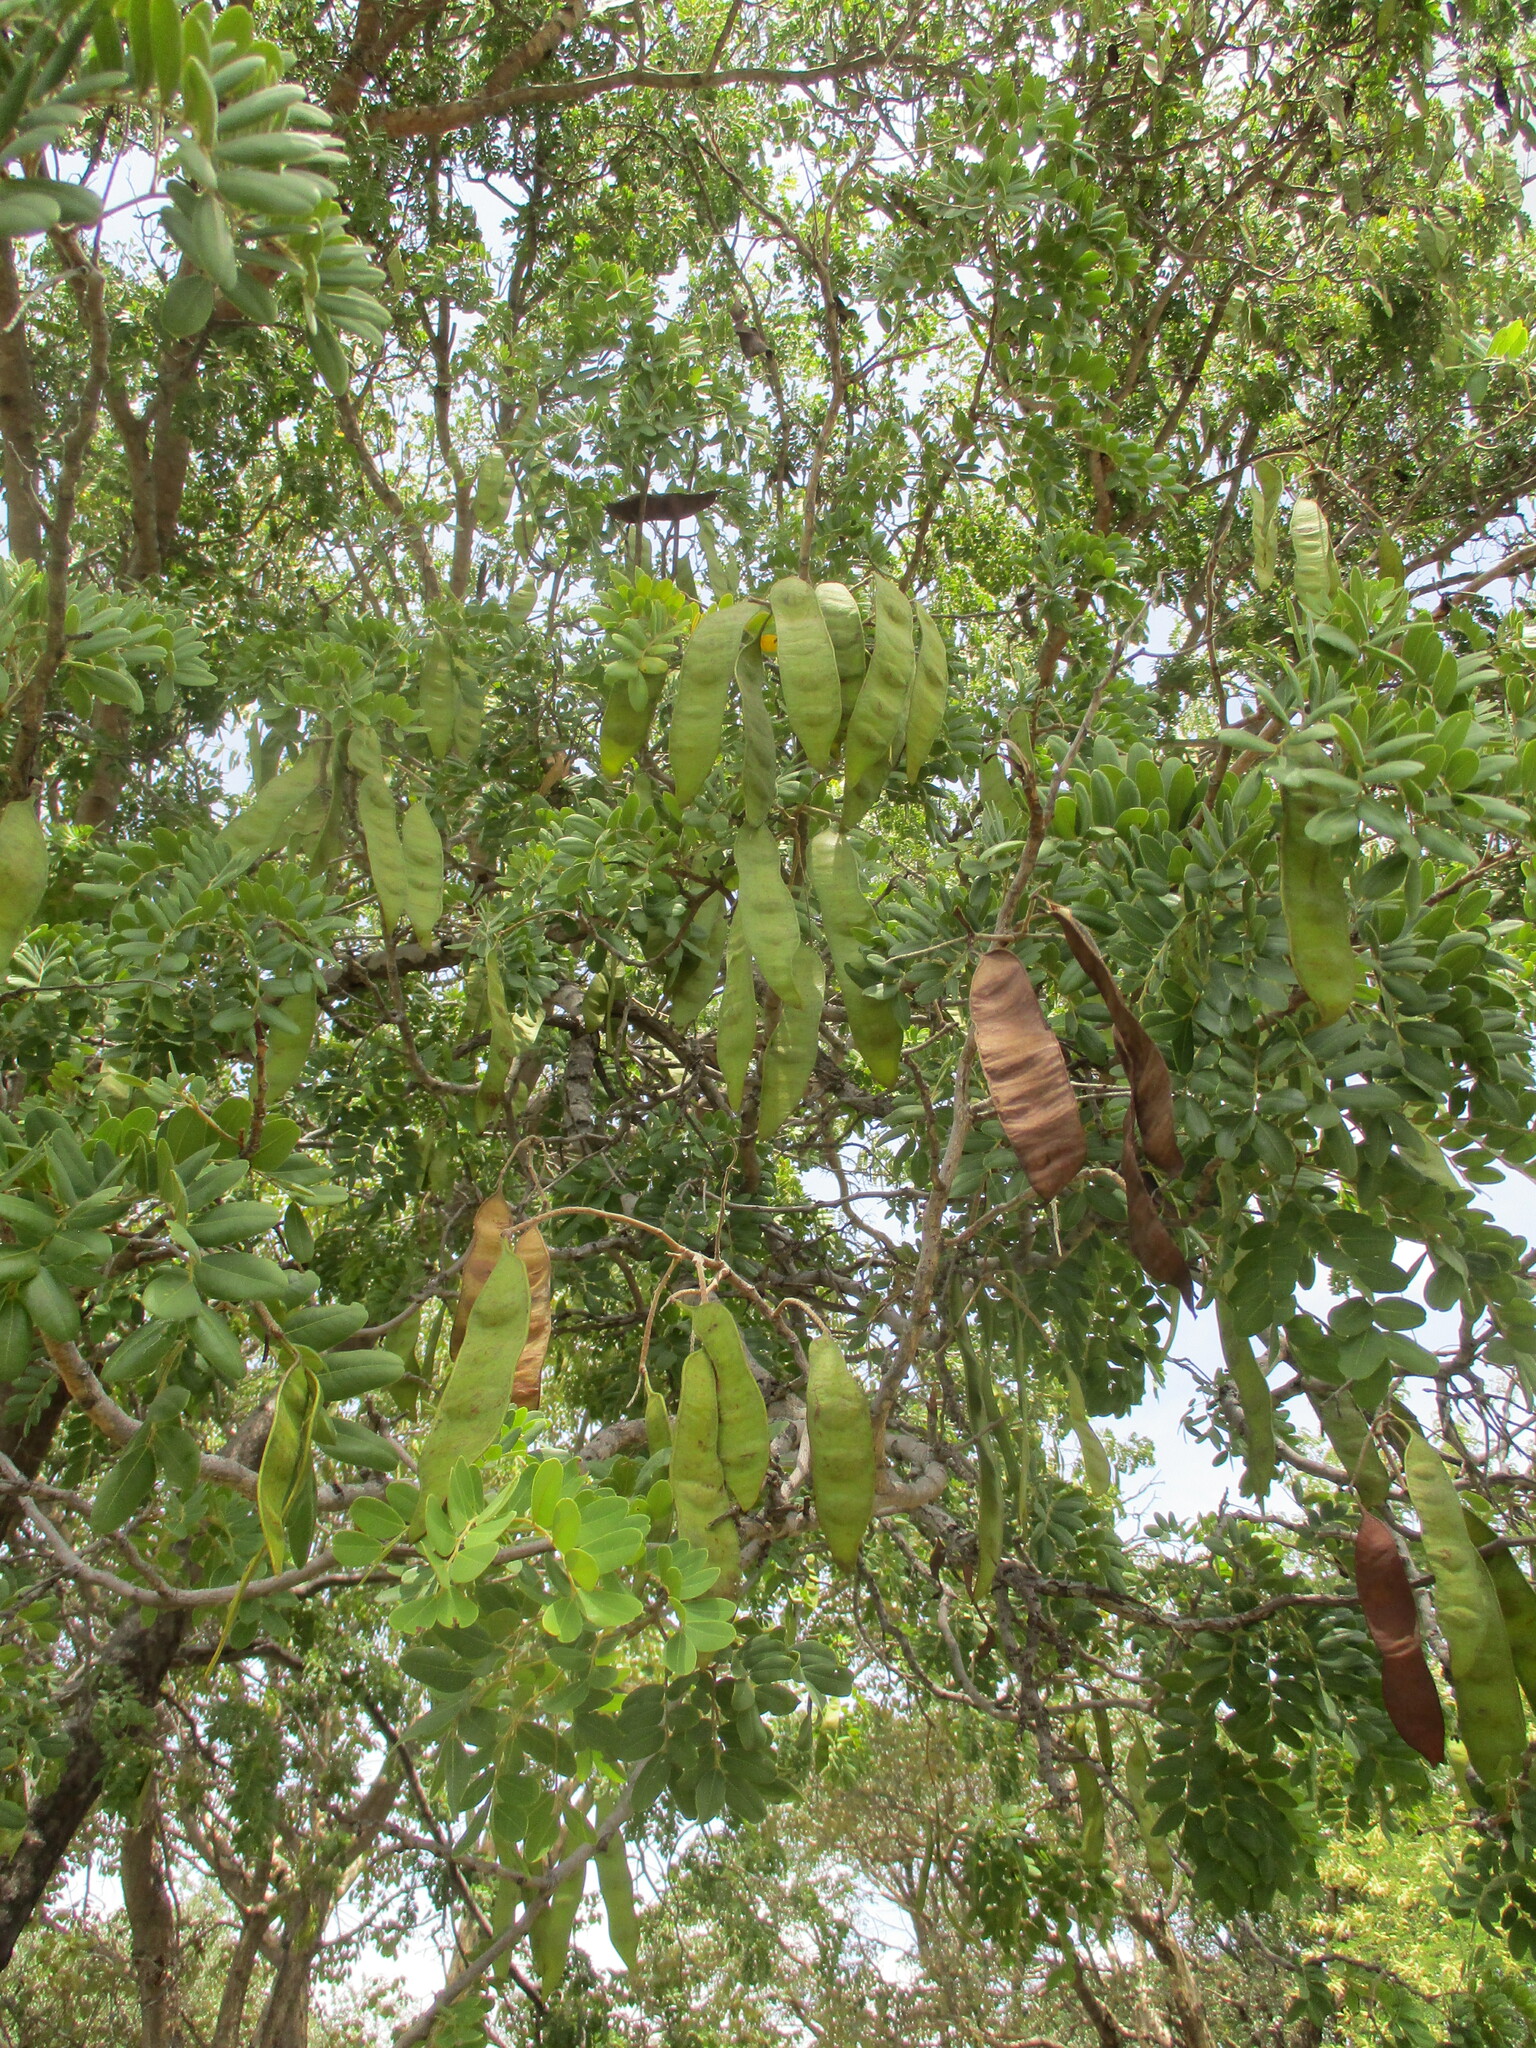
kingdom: Plantae
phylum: Tracheophyta
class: Magnoliopsida
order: Fabales
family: Fabaceae
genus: Albizia
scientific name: Albizia antunesiana
